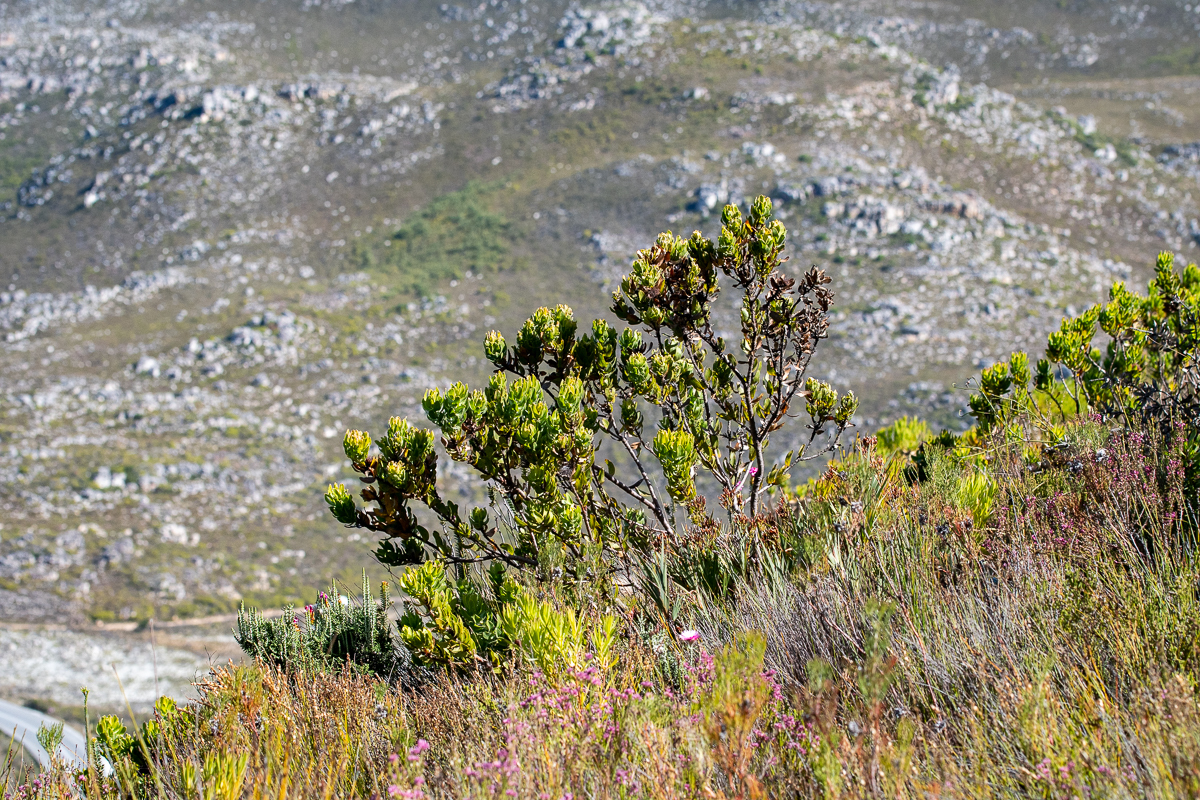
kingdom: Plantae
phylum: Tracheophyta
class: Magnoliopsida
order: Proteales
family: Proteaceae
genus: Leucospermum
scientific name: Leucospermum oleifolium
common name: Matches
